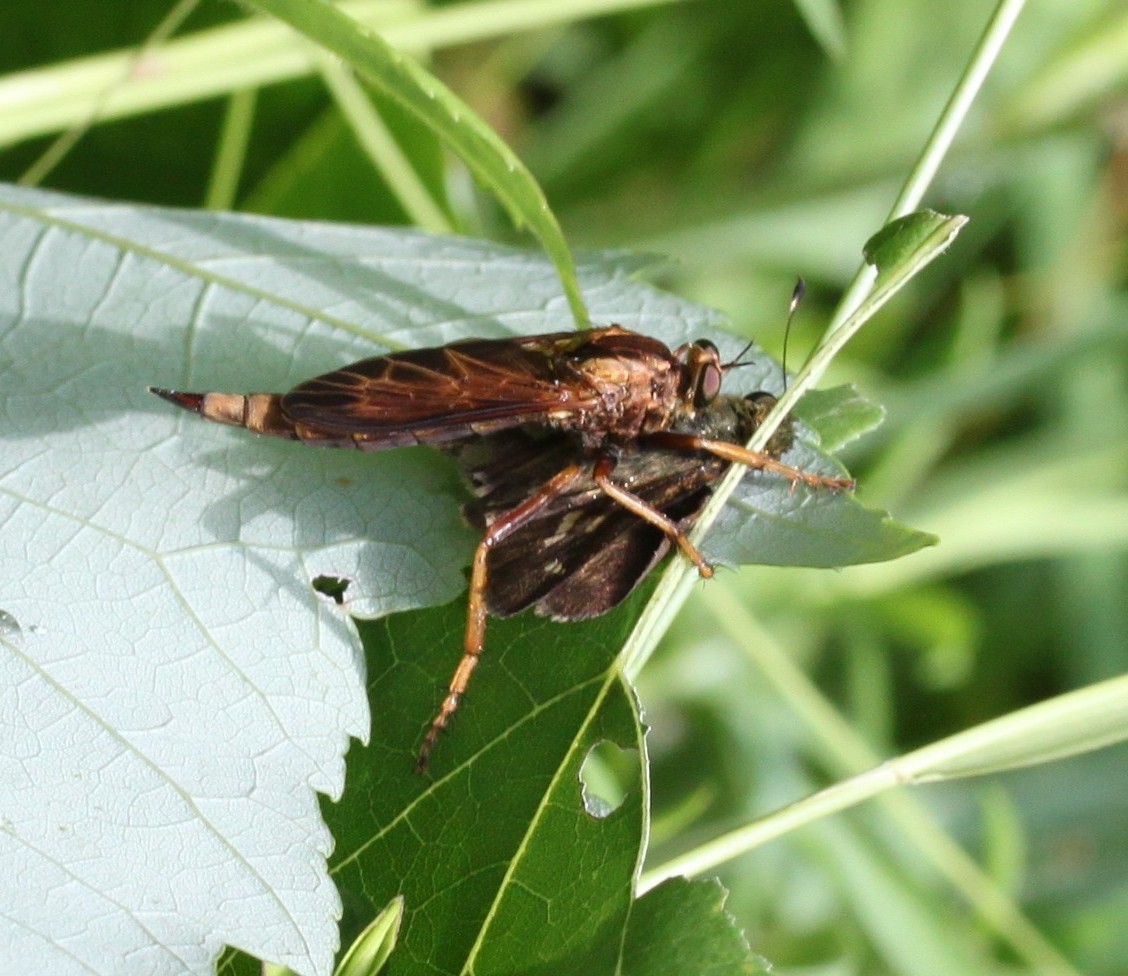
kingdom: Animalia
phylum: Arthropoda
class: Insecta
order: Diptera
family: Asilidae
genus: Asilus
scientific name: Asilus sericeus
